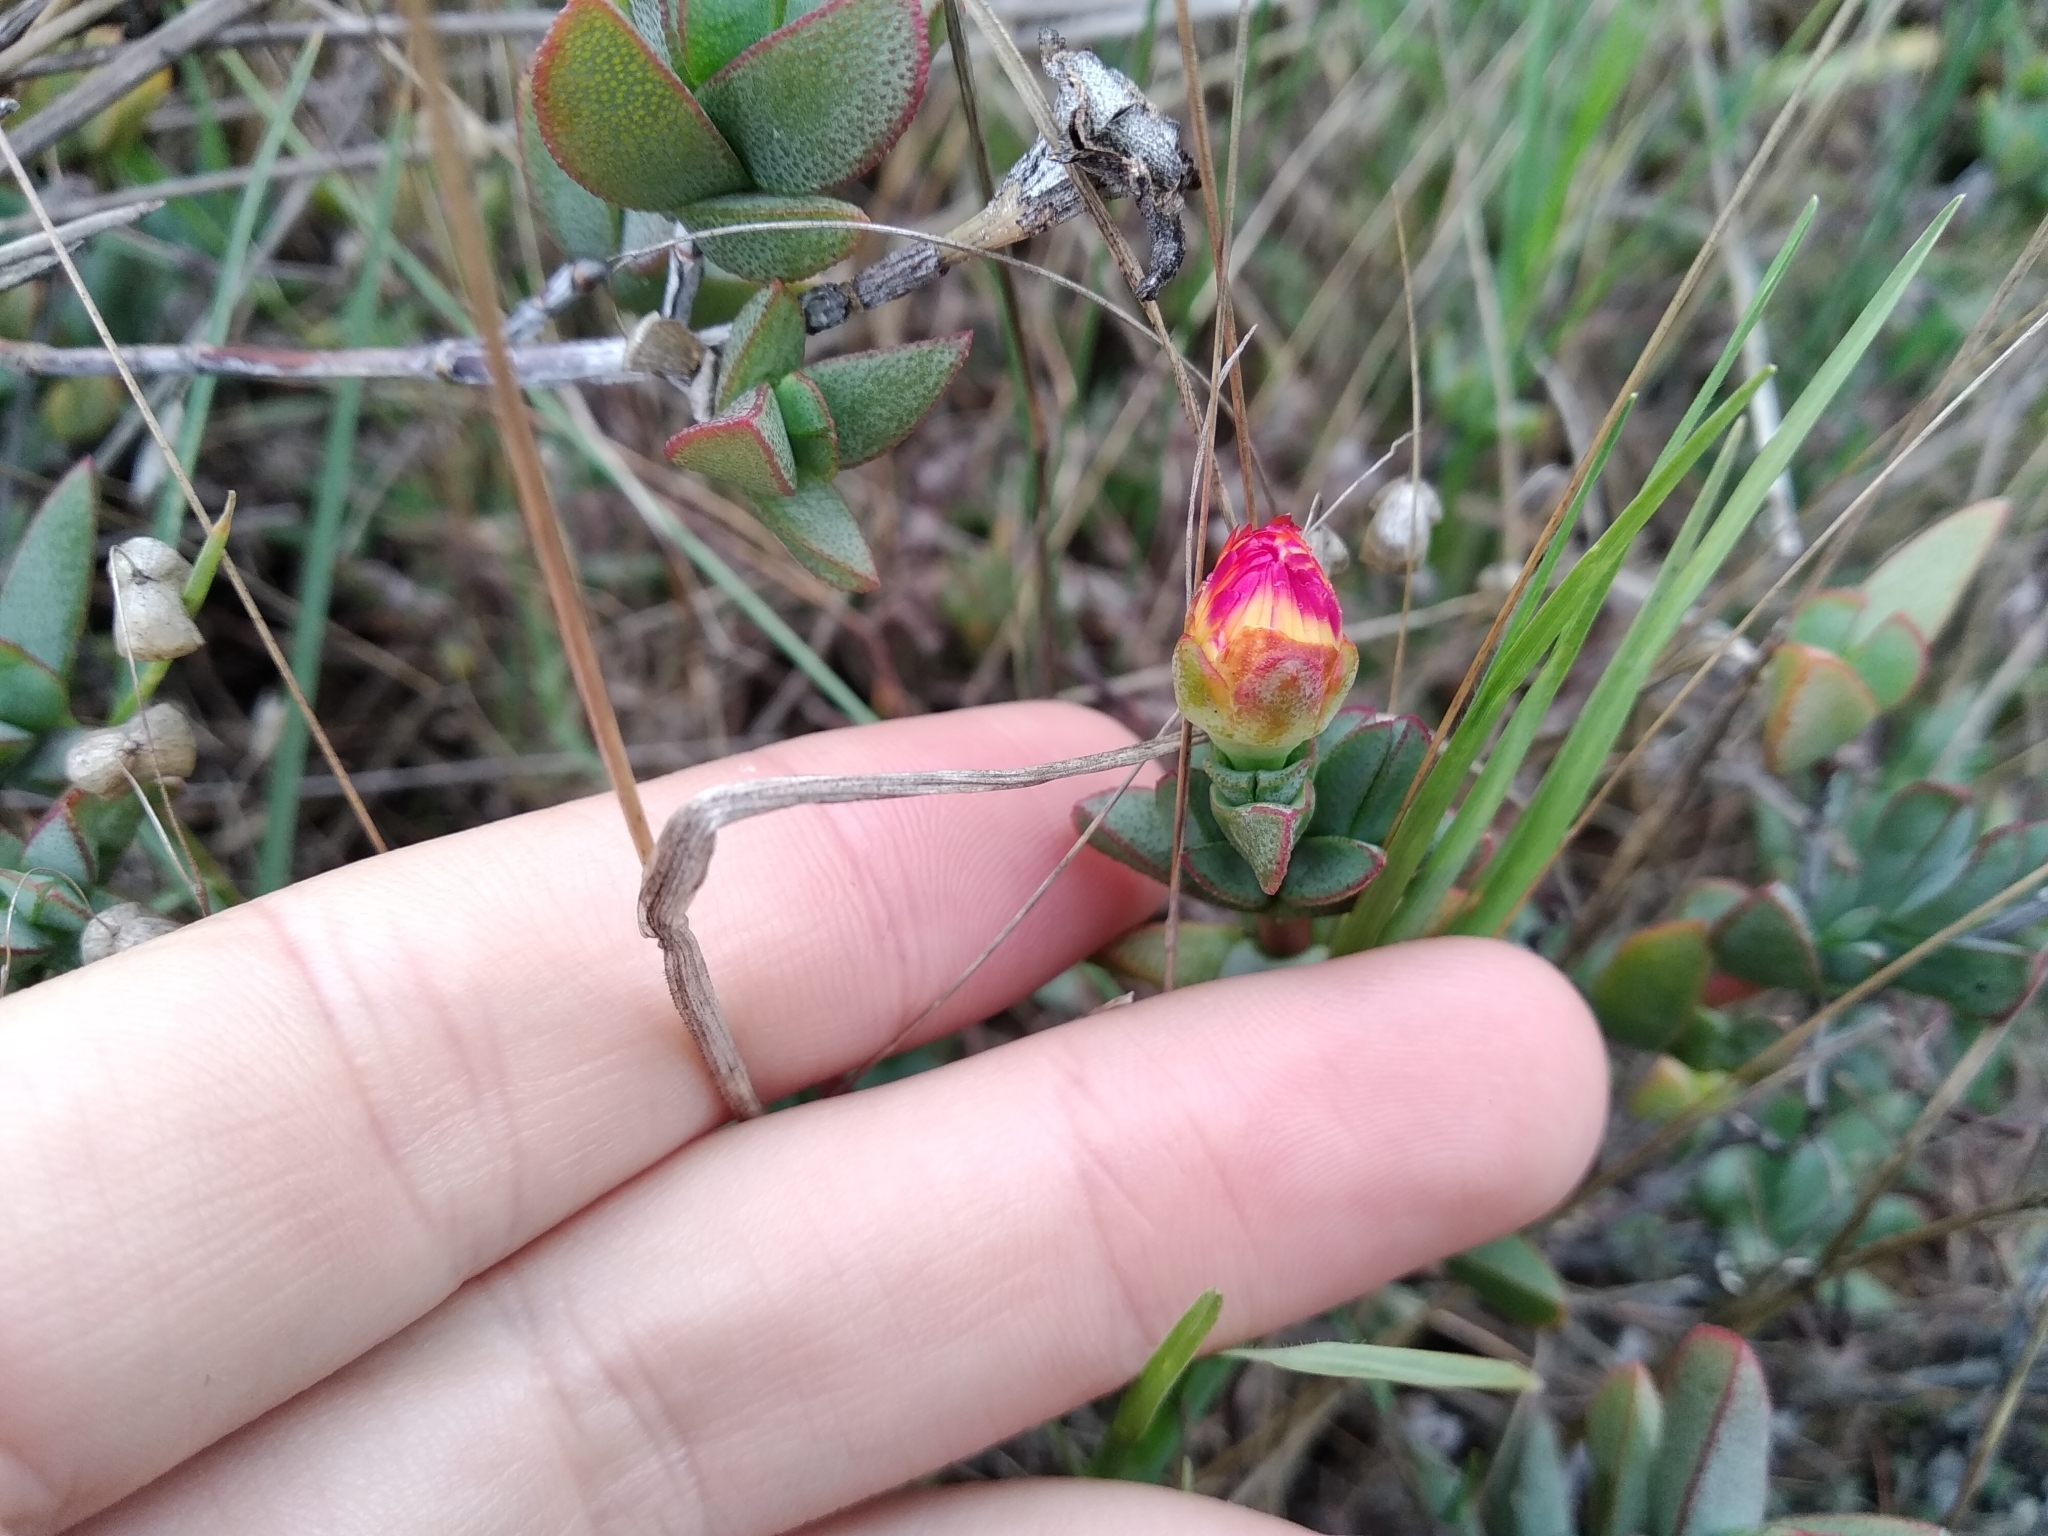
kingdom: Plantae
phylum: Tracheophyta
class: Magnoliopsida
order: Caryophyllales
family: Aizoaceae
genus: Lampranthus
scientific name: Lampranthus glaucus
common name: Noonflower
